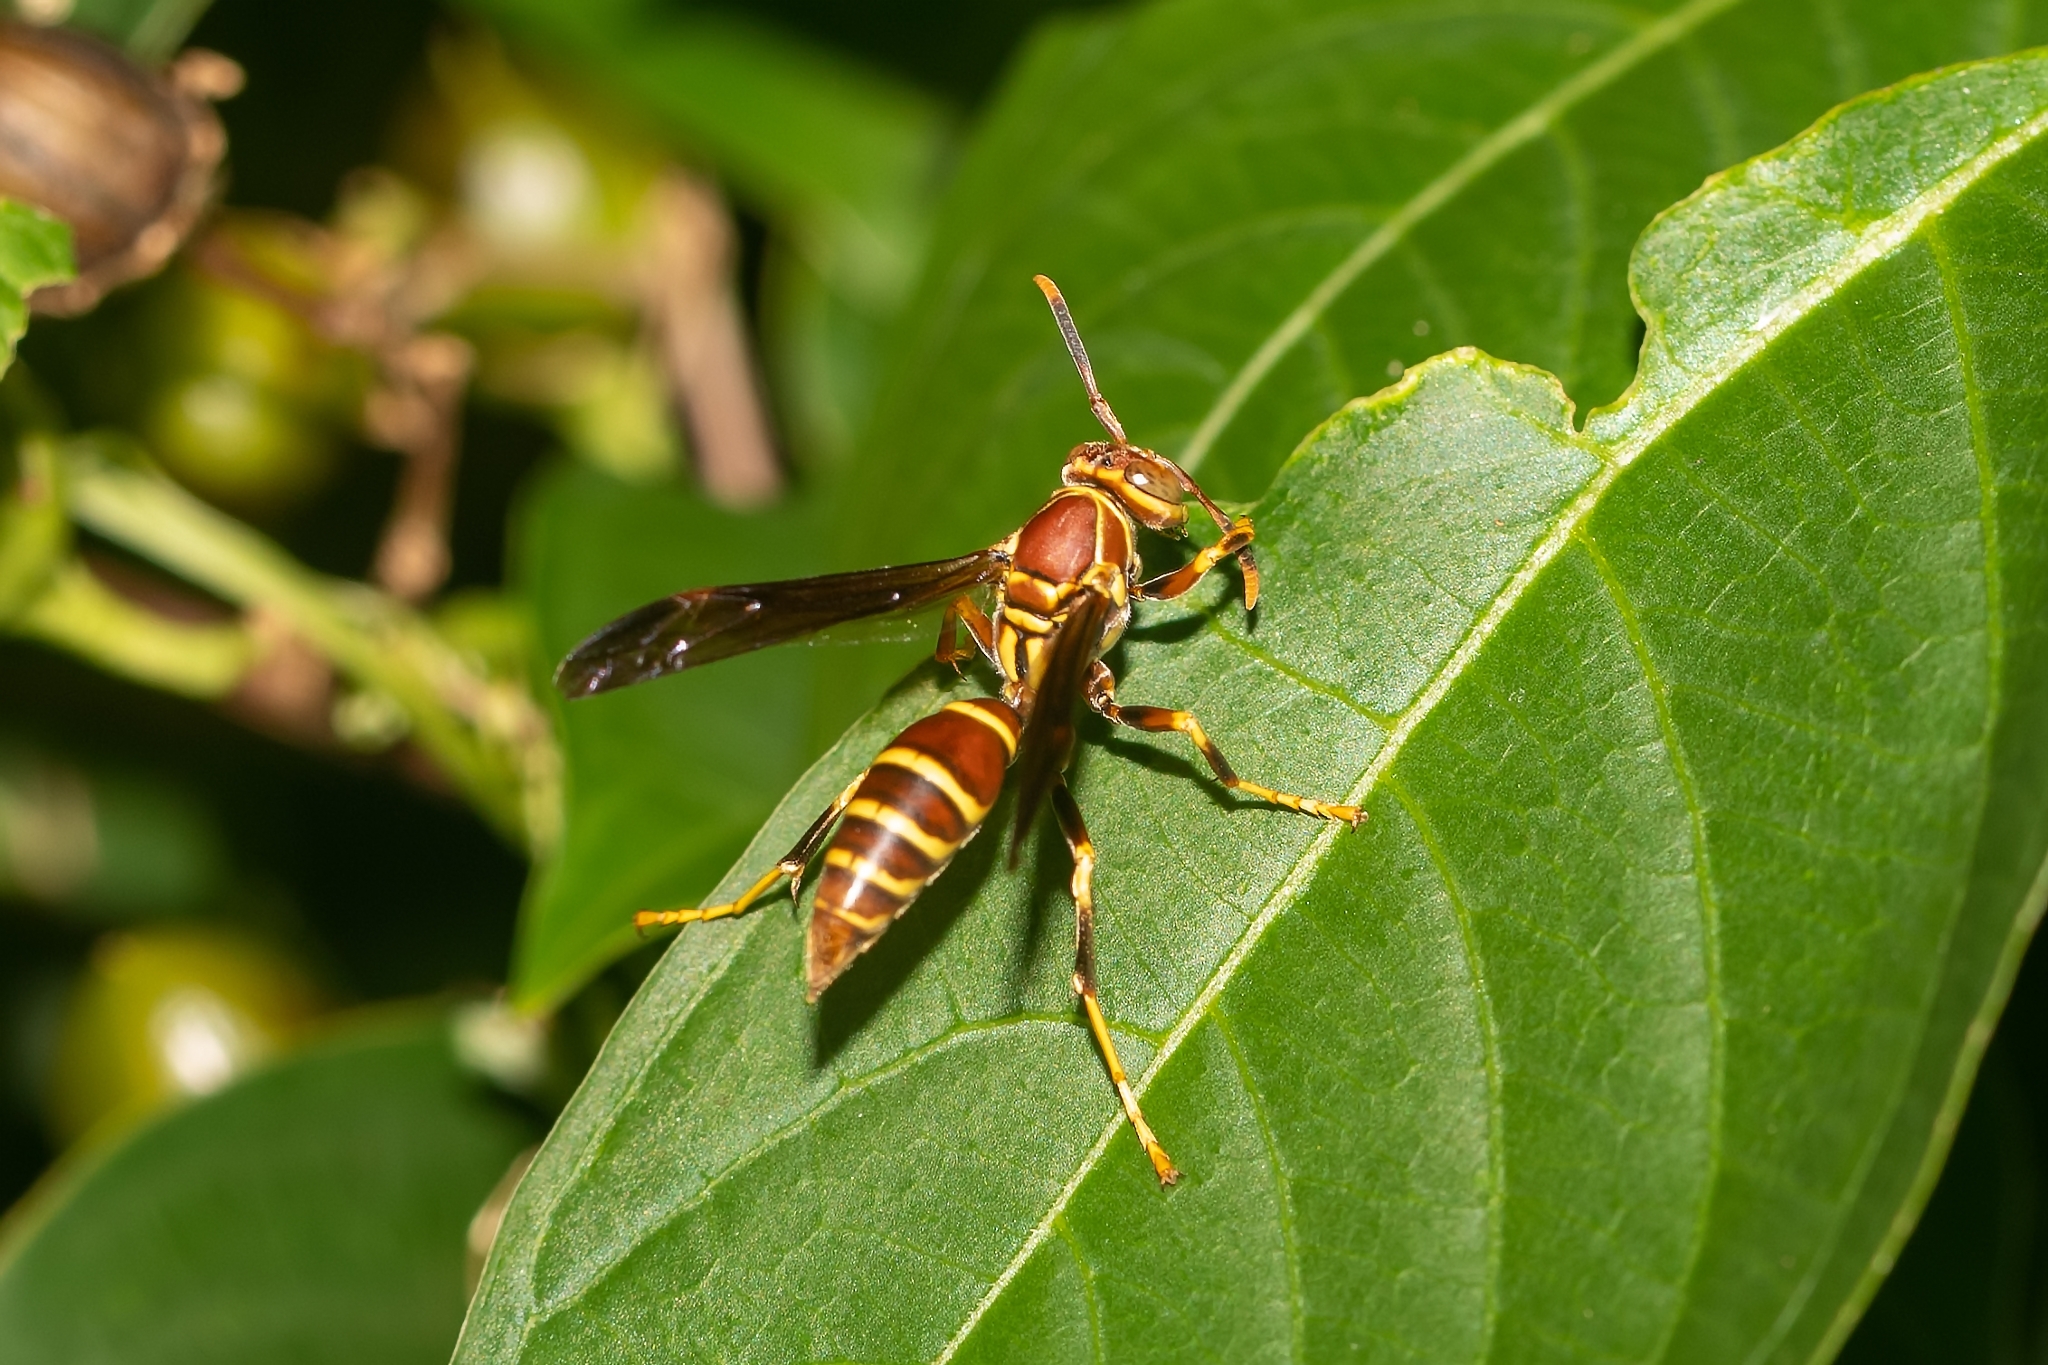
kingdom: Animalia
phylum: Arthropoda
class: Insecta
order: Hymenoptera
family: Eumenidae
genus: Polistes
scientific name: Polistes exclamans
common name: Paper wasp
